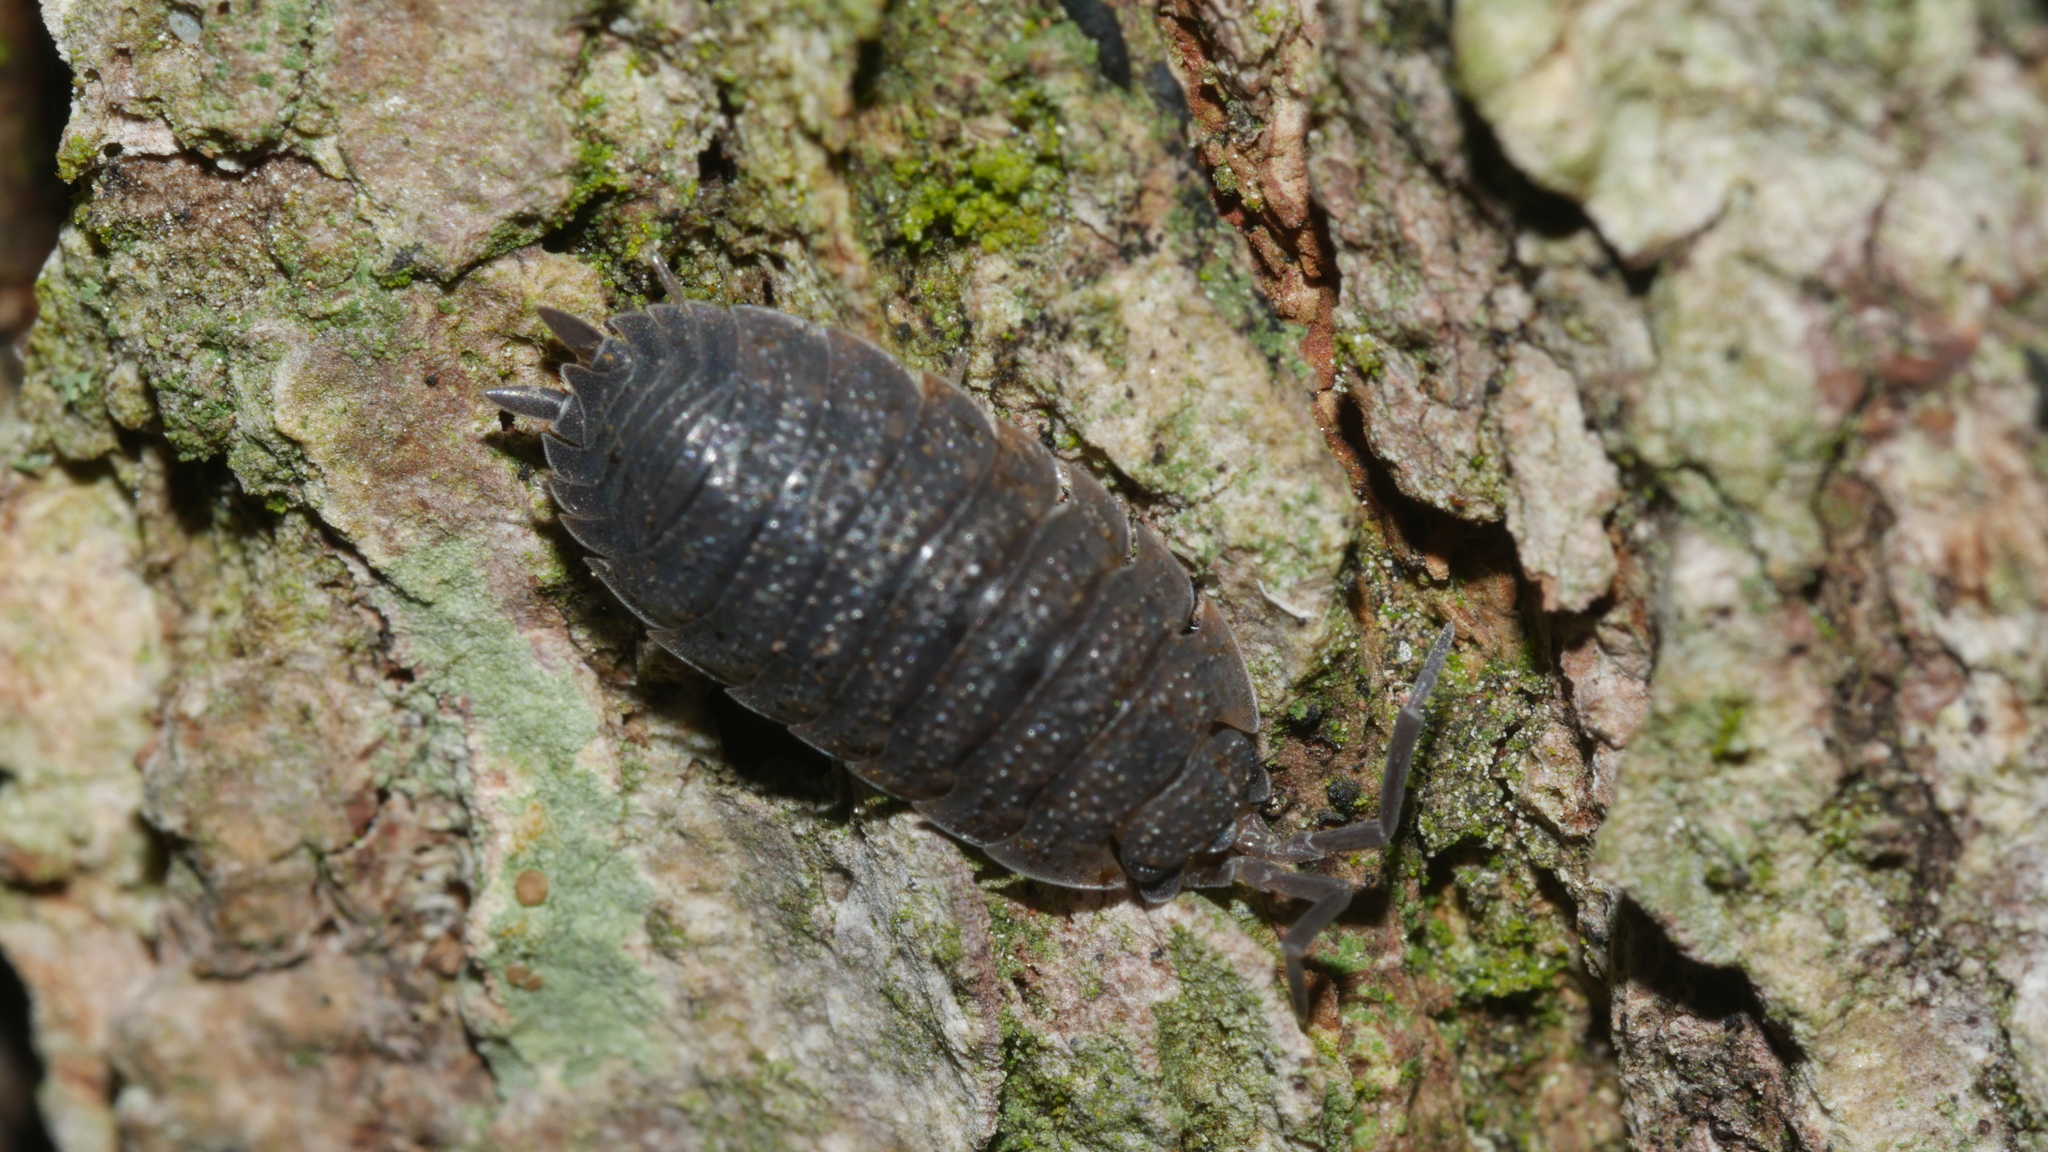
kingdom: Animalia
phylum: Arthropoda
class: Malacostraca
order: Isopoda
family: Porcellionidae
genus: Porcellio
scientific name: Porcellio scaber
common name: Common rough woodlouse
